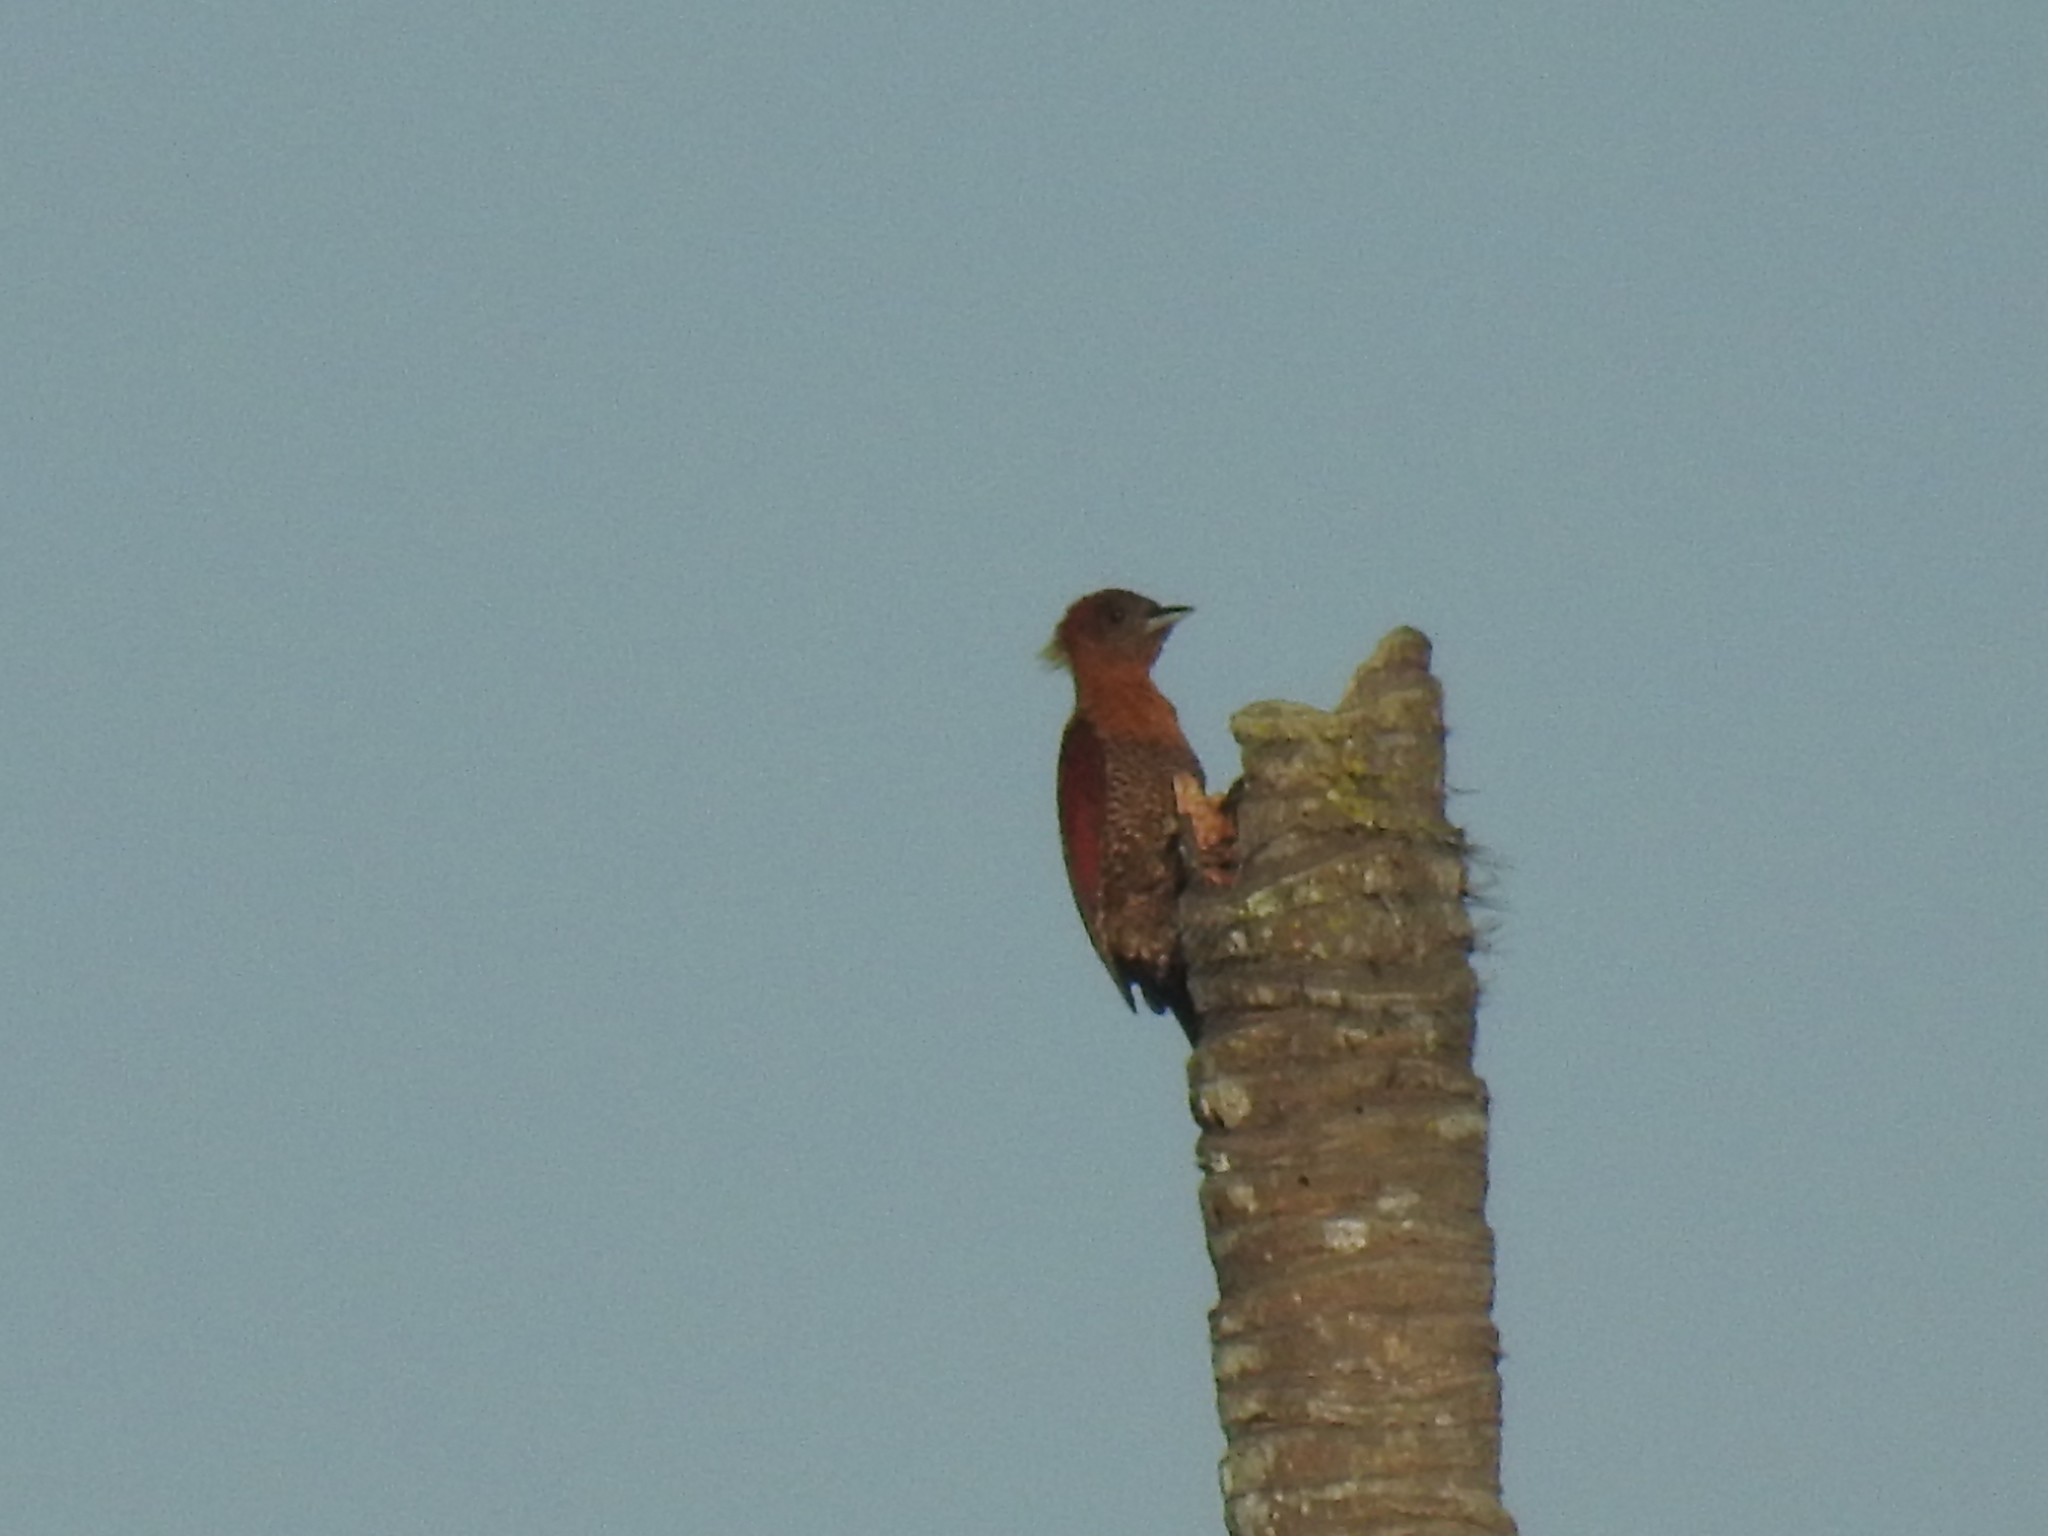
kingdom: Animalia
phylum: Chordata
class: Aves
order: Piciformes
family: Picidae
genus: Chrysophlegma
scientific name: Chrysophlegma miniaceum
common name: Banded woodpecker
